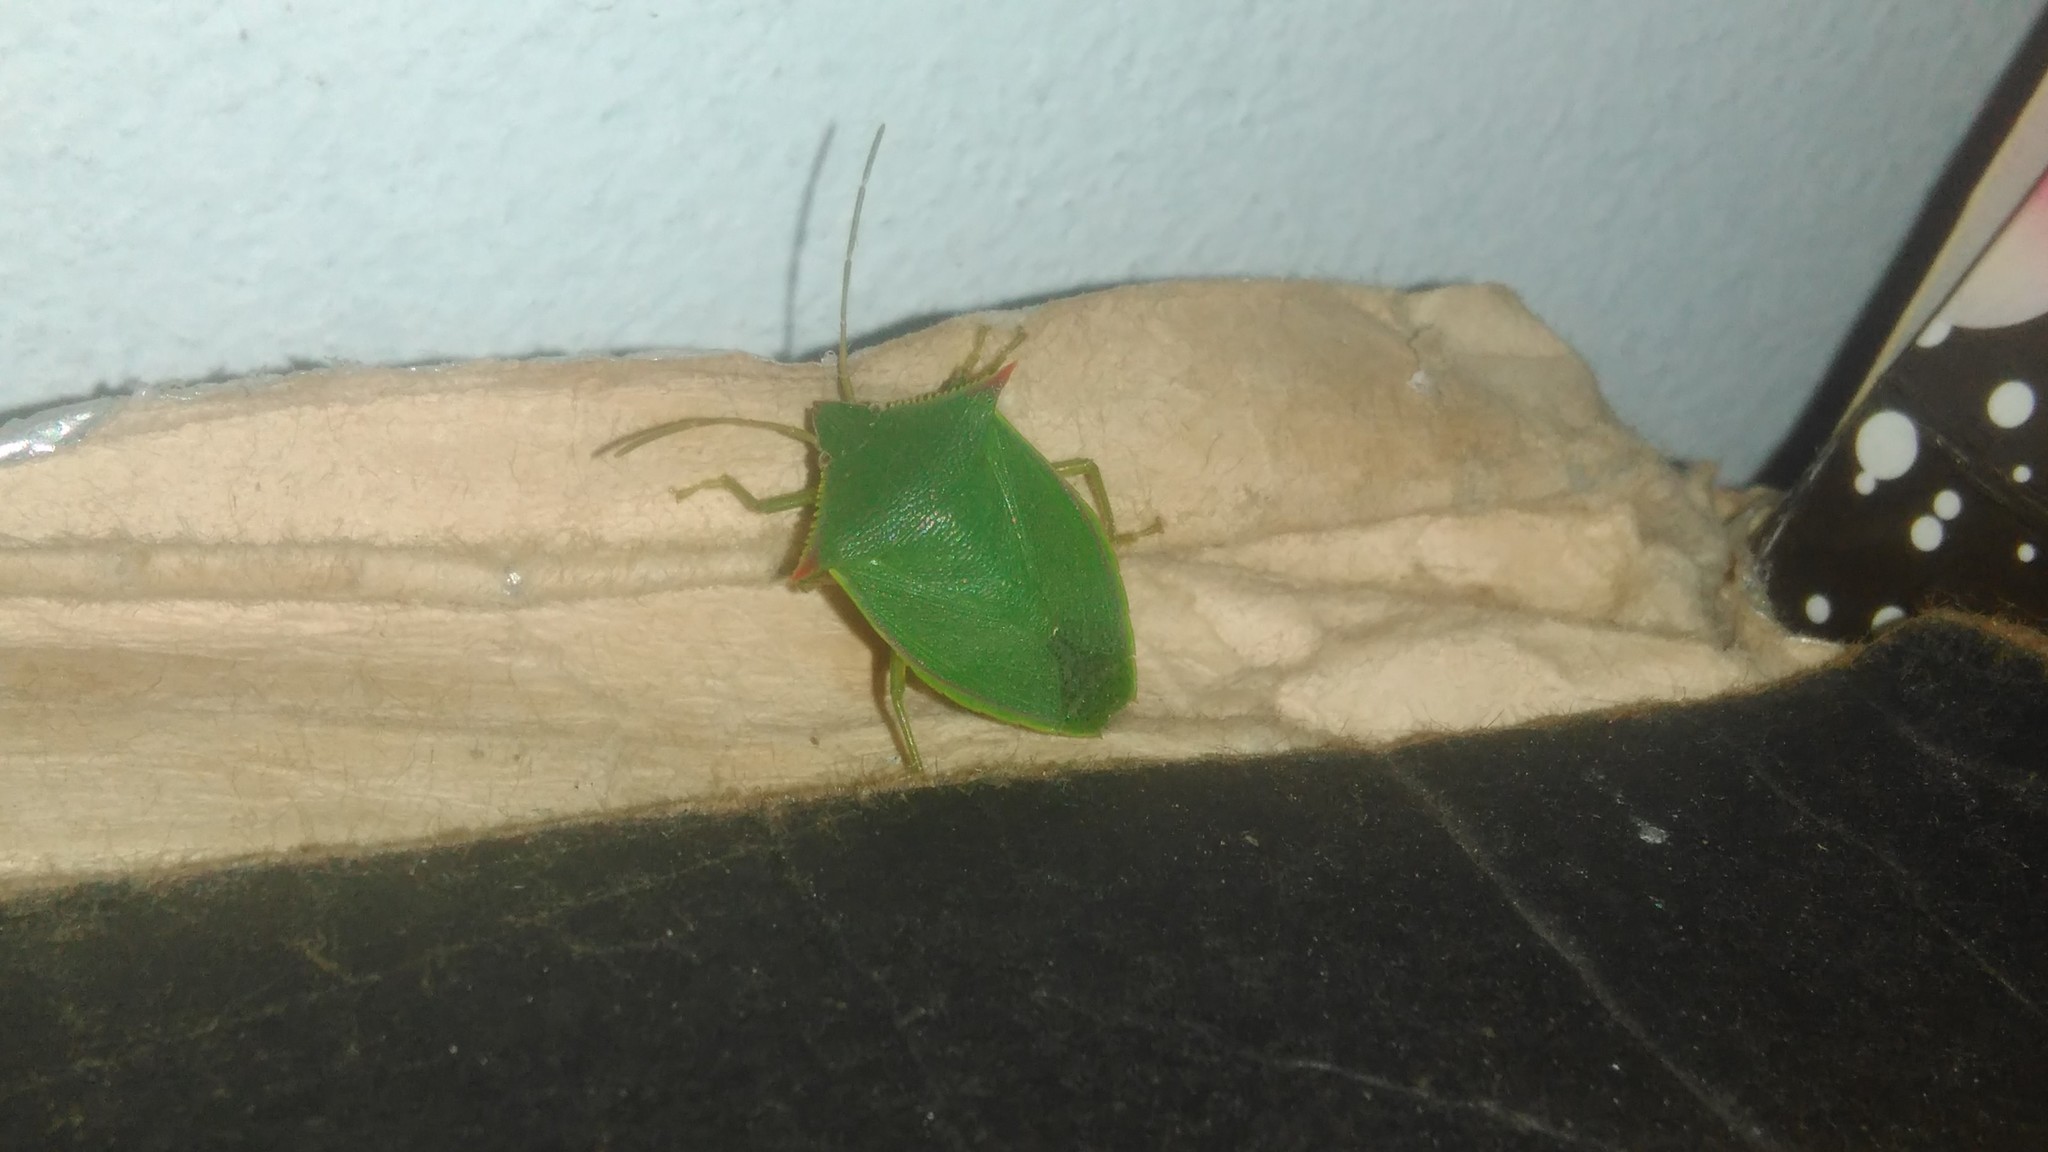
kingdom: Animalia
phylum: Arthropoda
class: Insecta
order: Hemiptera
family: Pentatomidae
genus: Loxa
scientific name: Loxa deducta
